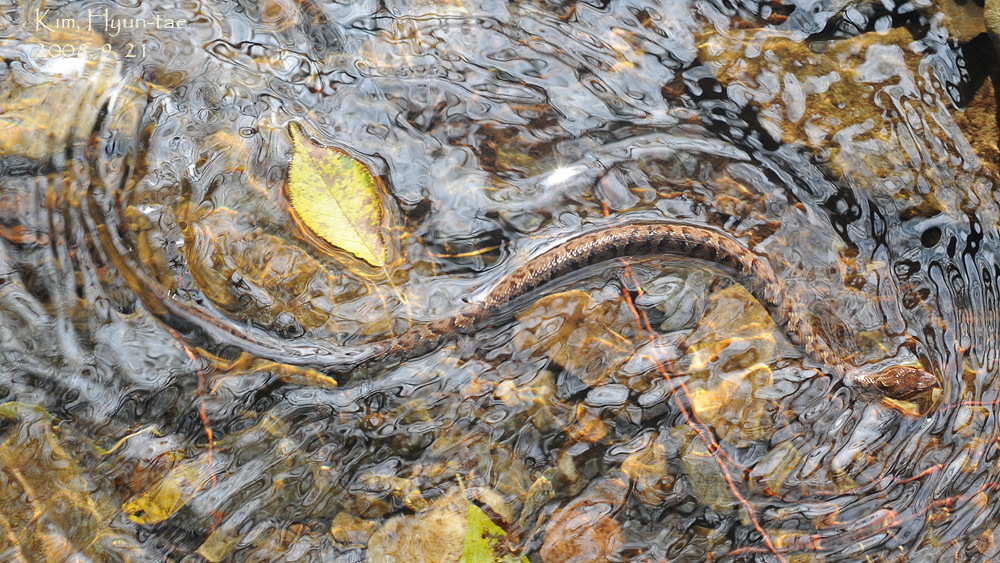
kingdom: Animalia
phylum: Chordata
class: Squamata
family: Viperidae
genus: Gloydius
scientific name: Gloydius ussuriensis
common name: Ussuri mamushi
